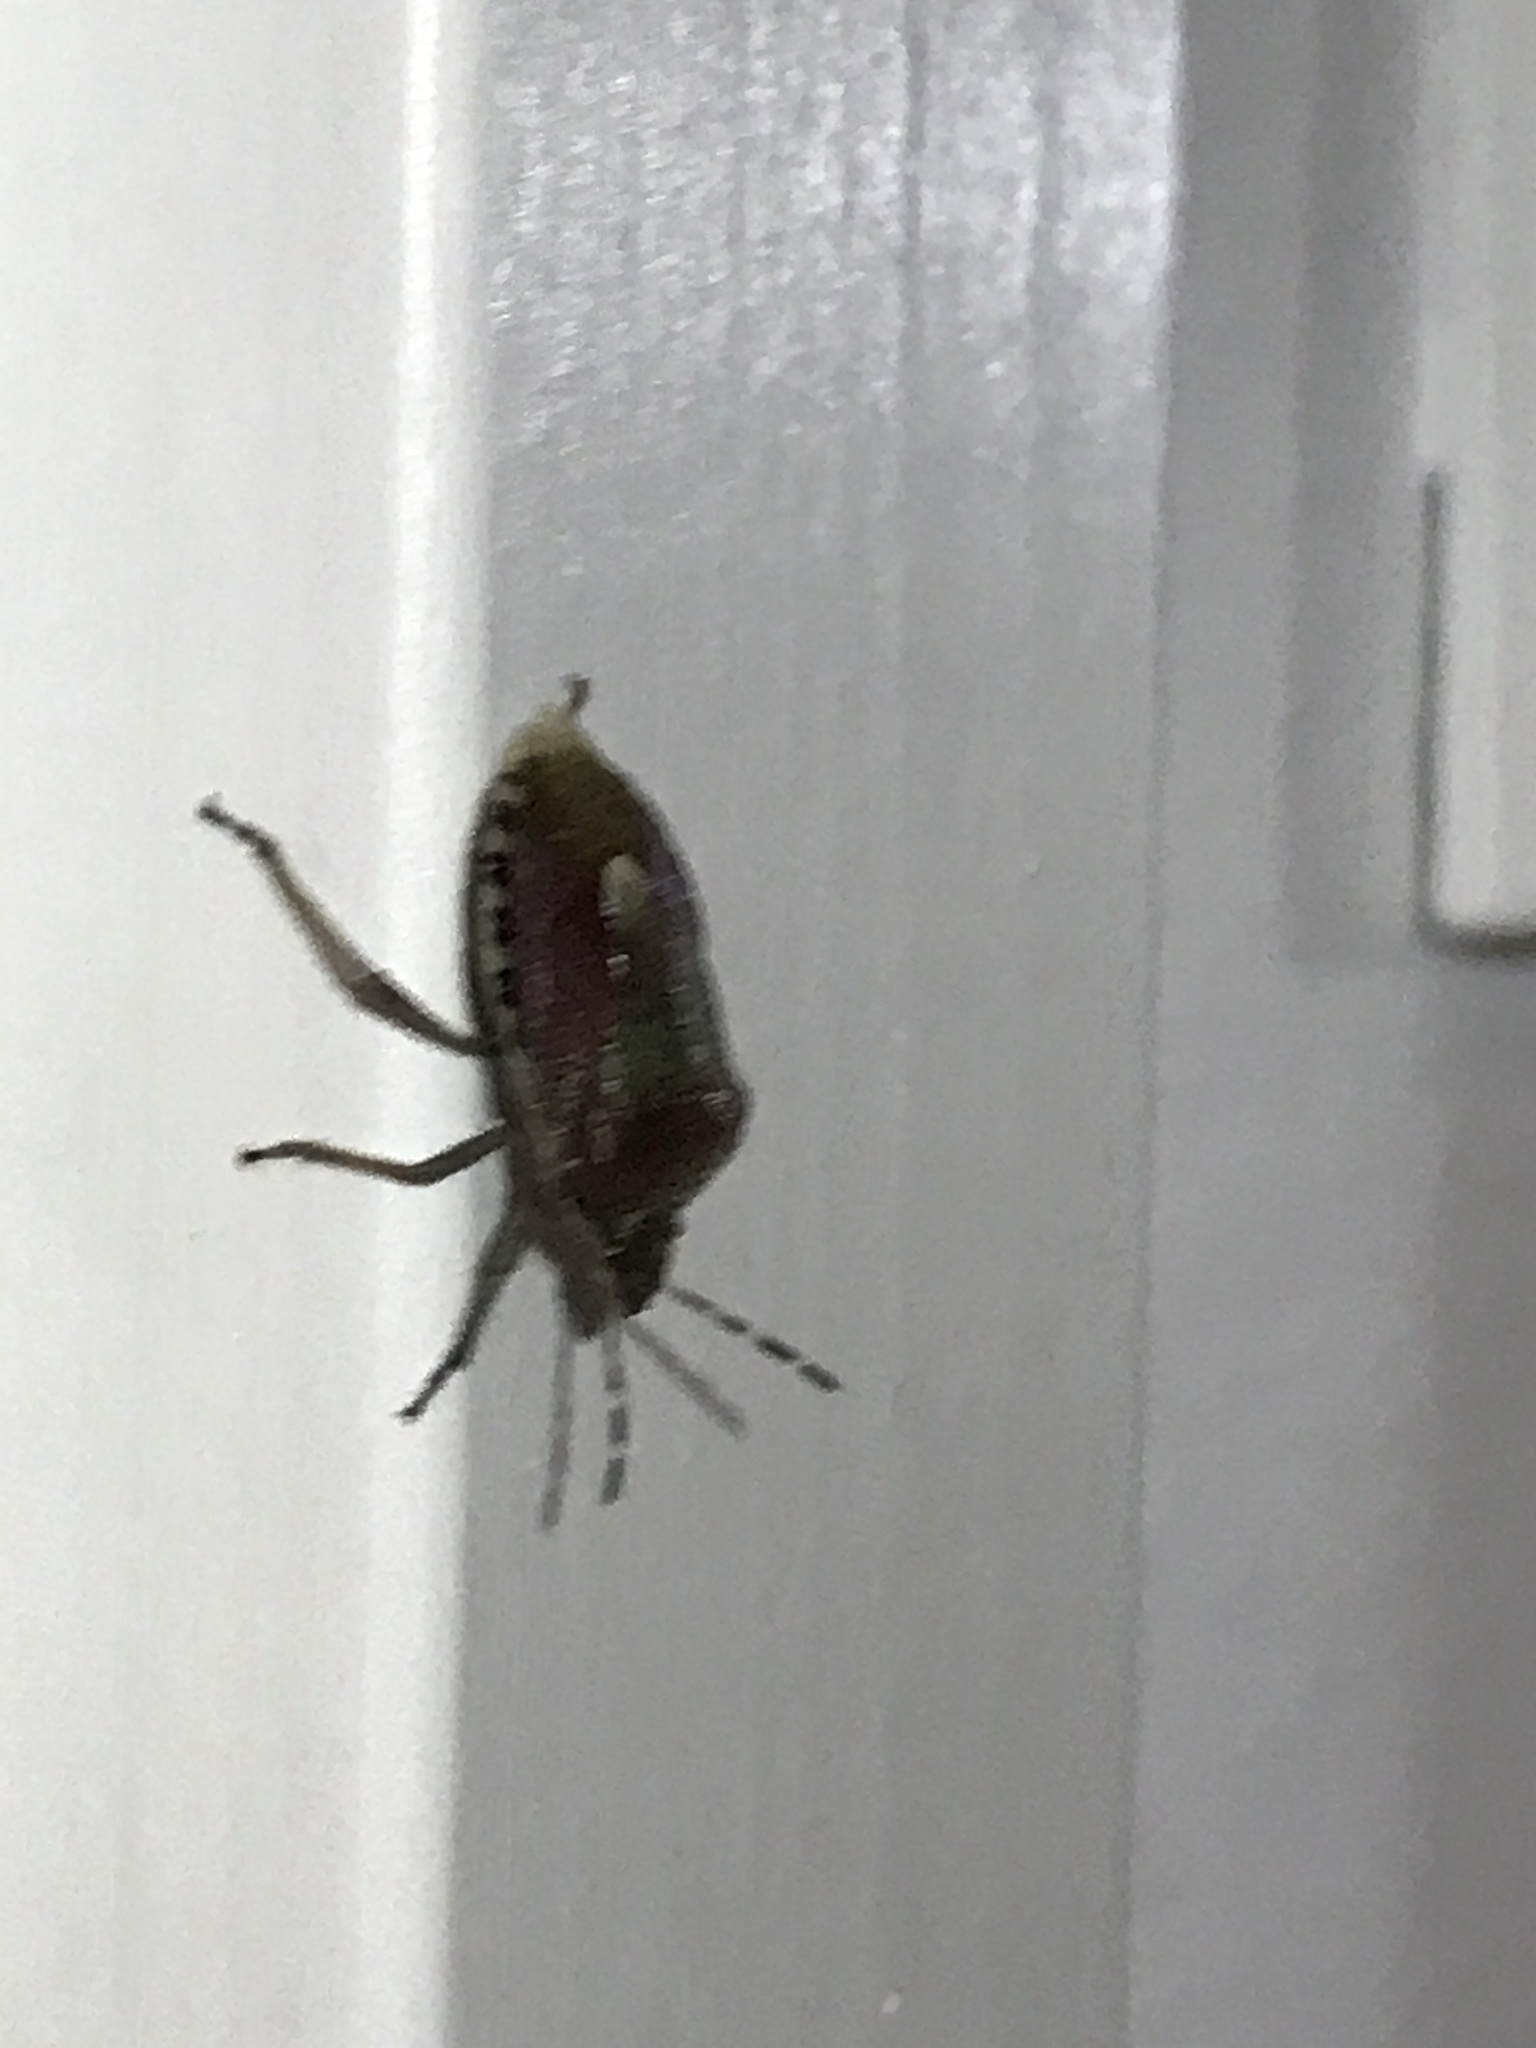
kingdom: Animalia
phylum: Arthropoda
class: Insecta
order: Hemiptera
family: Pentatomidae
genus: Dolycoris
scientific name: Dolycoris baccarum
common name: Sloe bug
